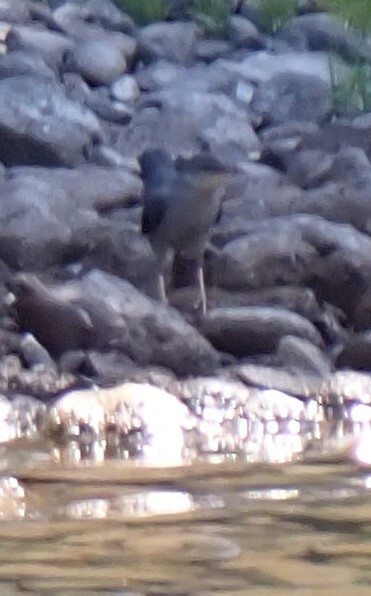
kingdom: Animalia
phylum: Chordata
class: Aves
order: Passeriformes
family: Cinclidae
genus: Cinclus
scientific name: Cinclus mexicanus
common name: American dipper
